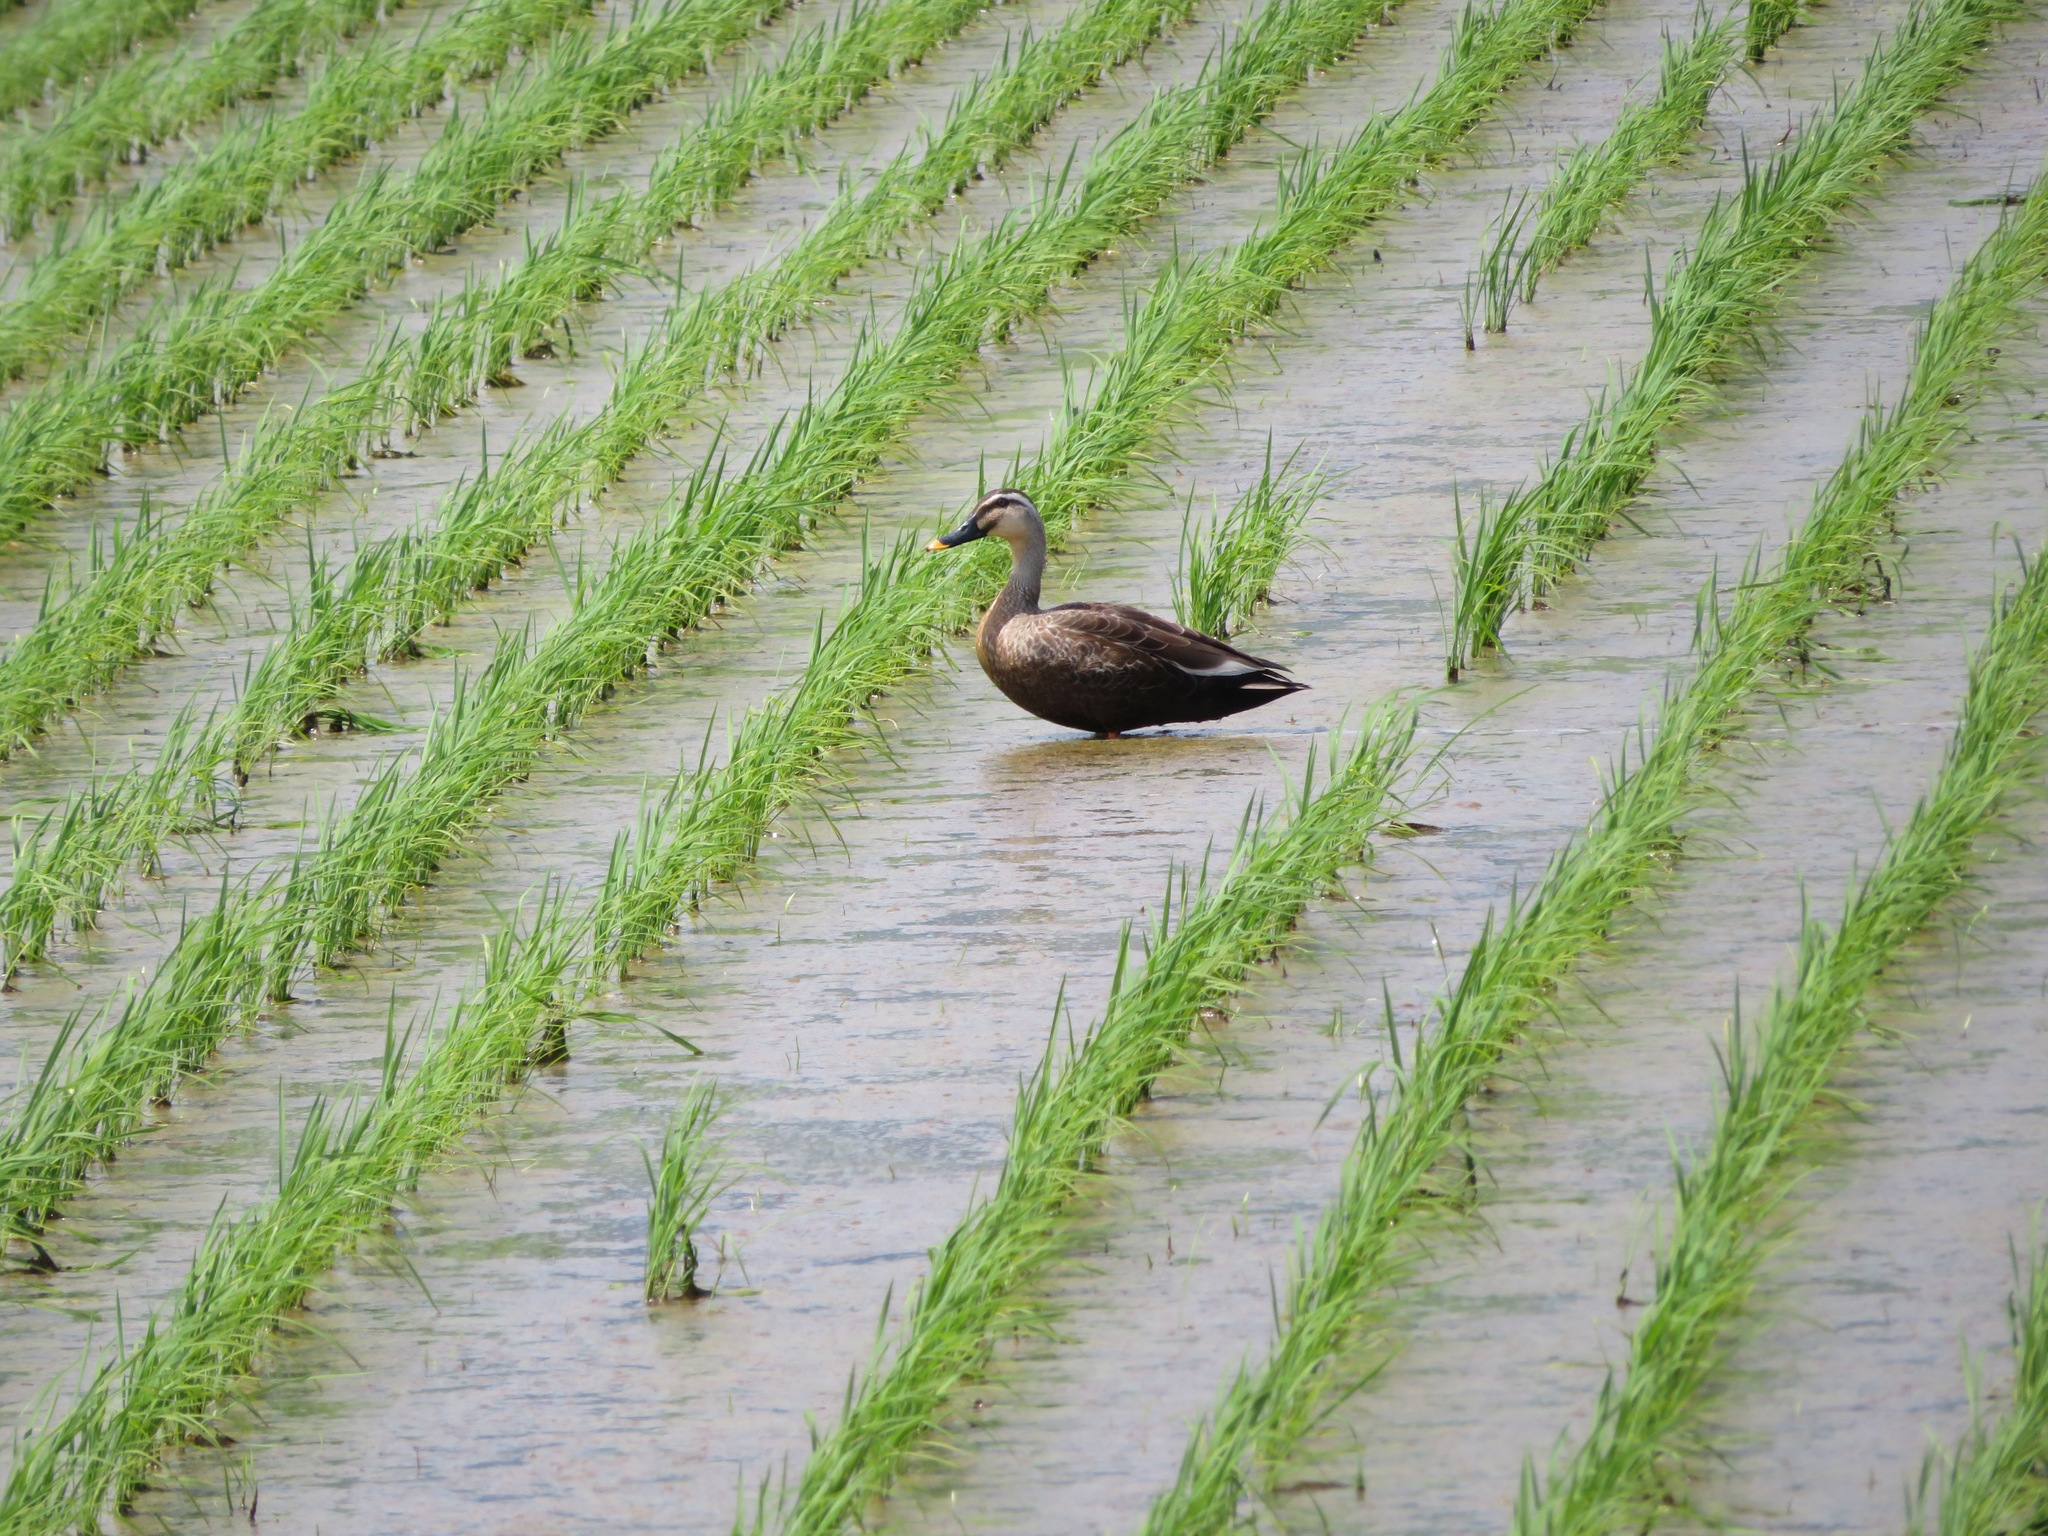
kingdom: Animalia
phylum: Chordata
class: Aves
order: Anseriformes
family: Anatidae
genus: Anas
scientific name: Anas zonorhyncha
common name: Eastern spot-billed duck
